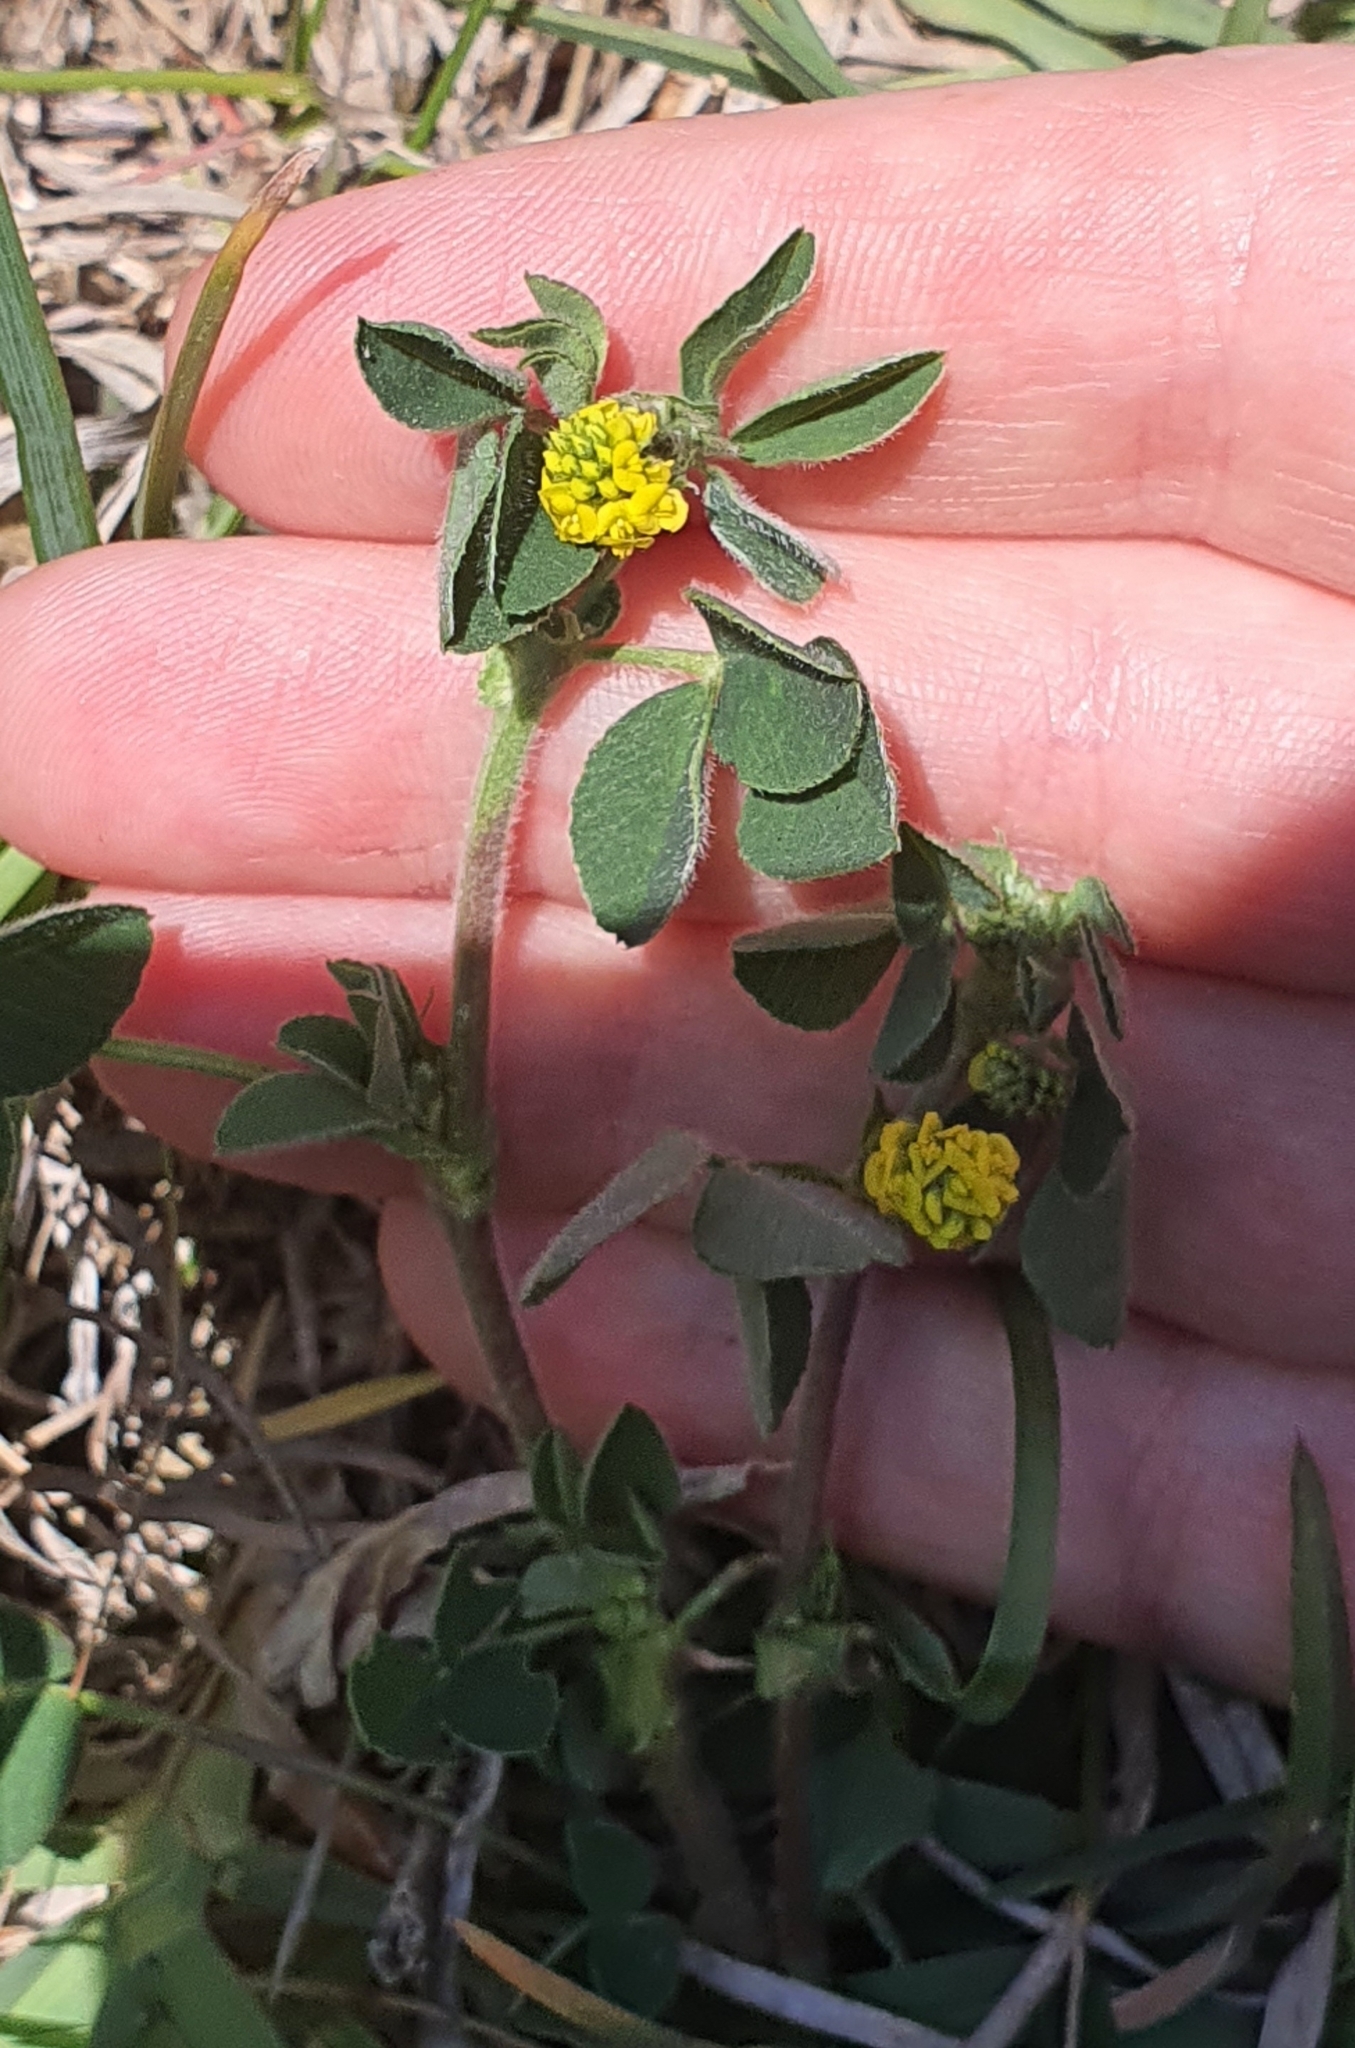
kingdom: Plantae
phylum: Tracheophyta
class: Magnoliopsida
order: Fabales
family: Fabaceae
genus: Medicago
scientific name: Medicago lupulina
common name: Black medick
